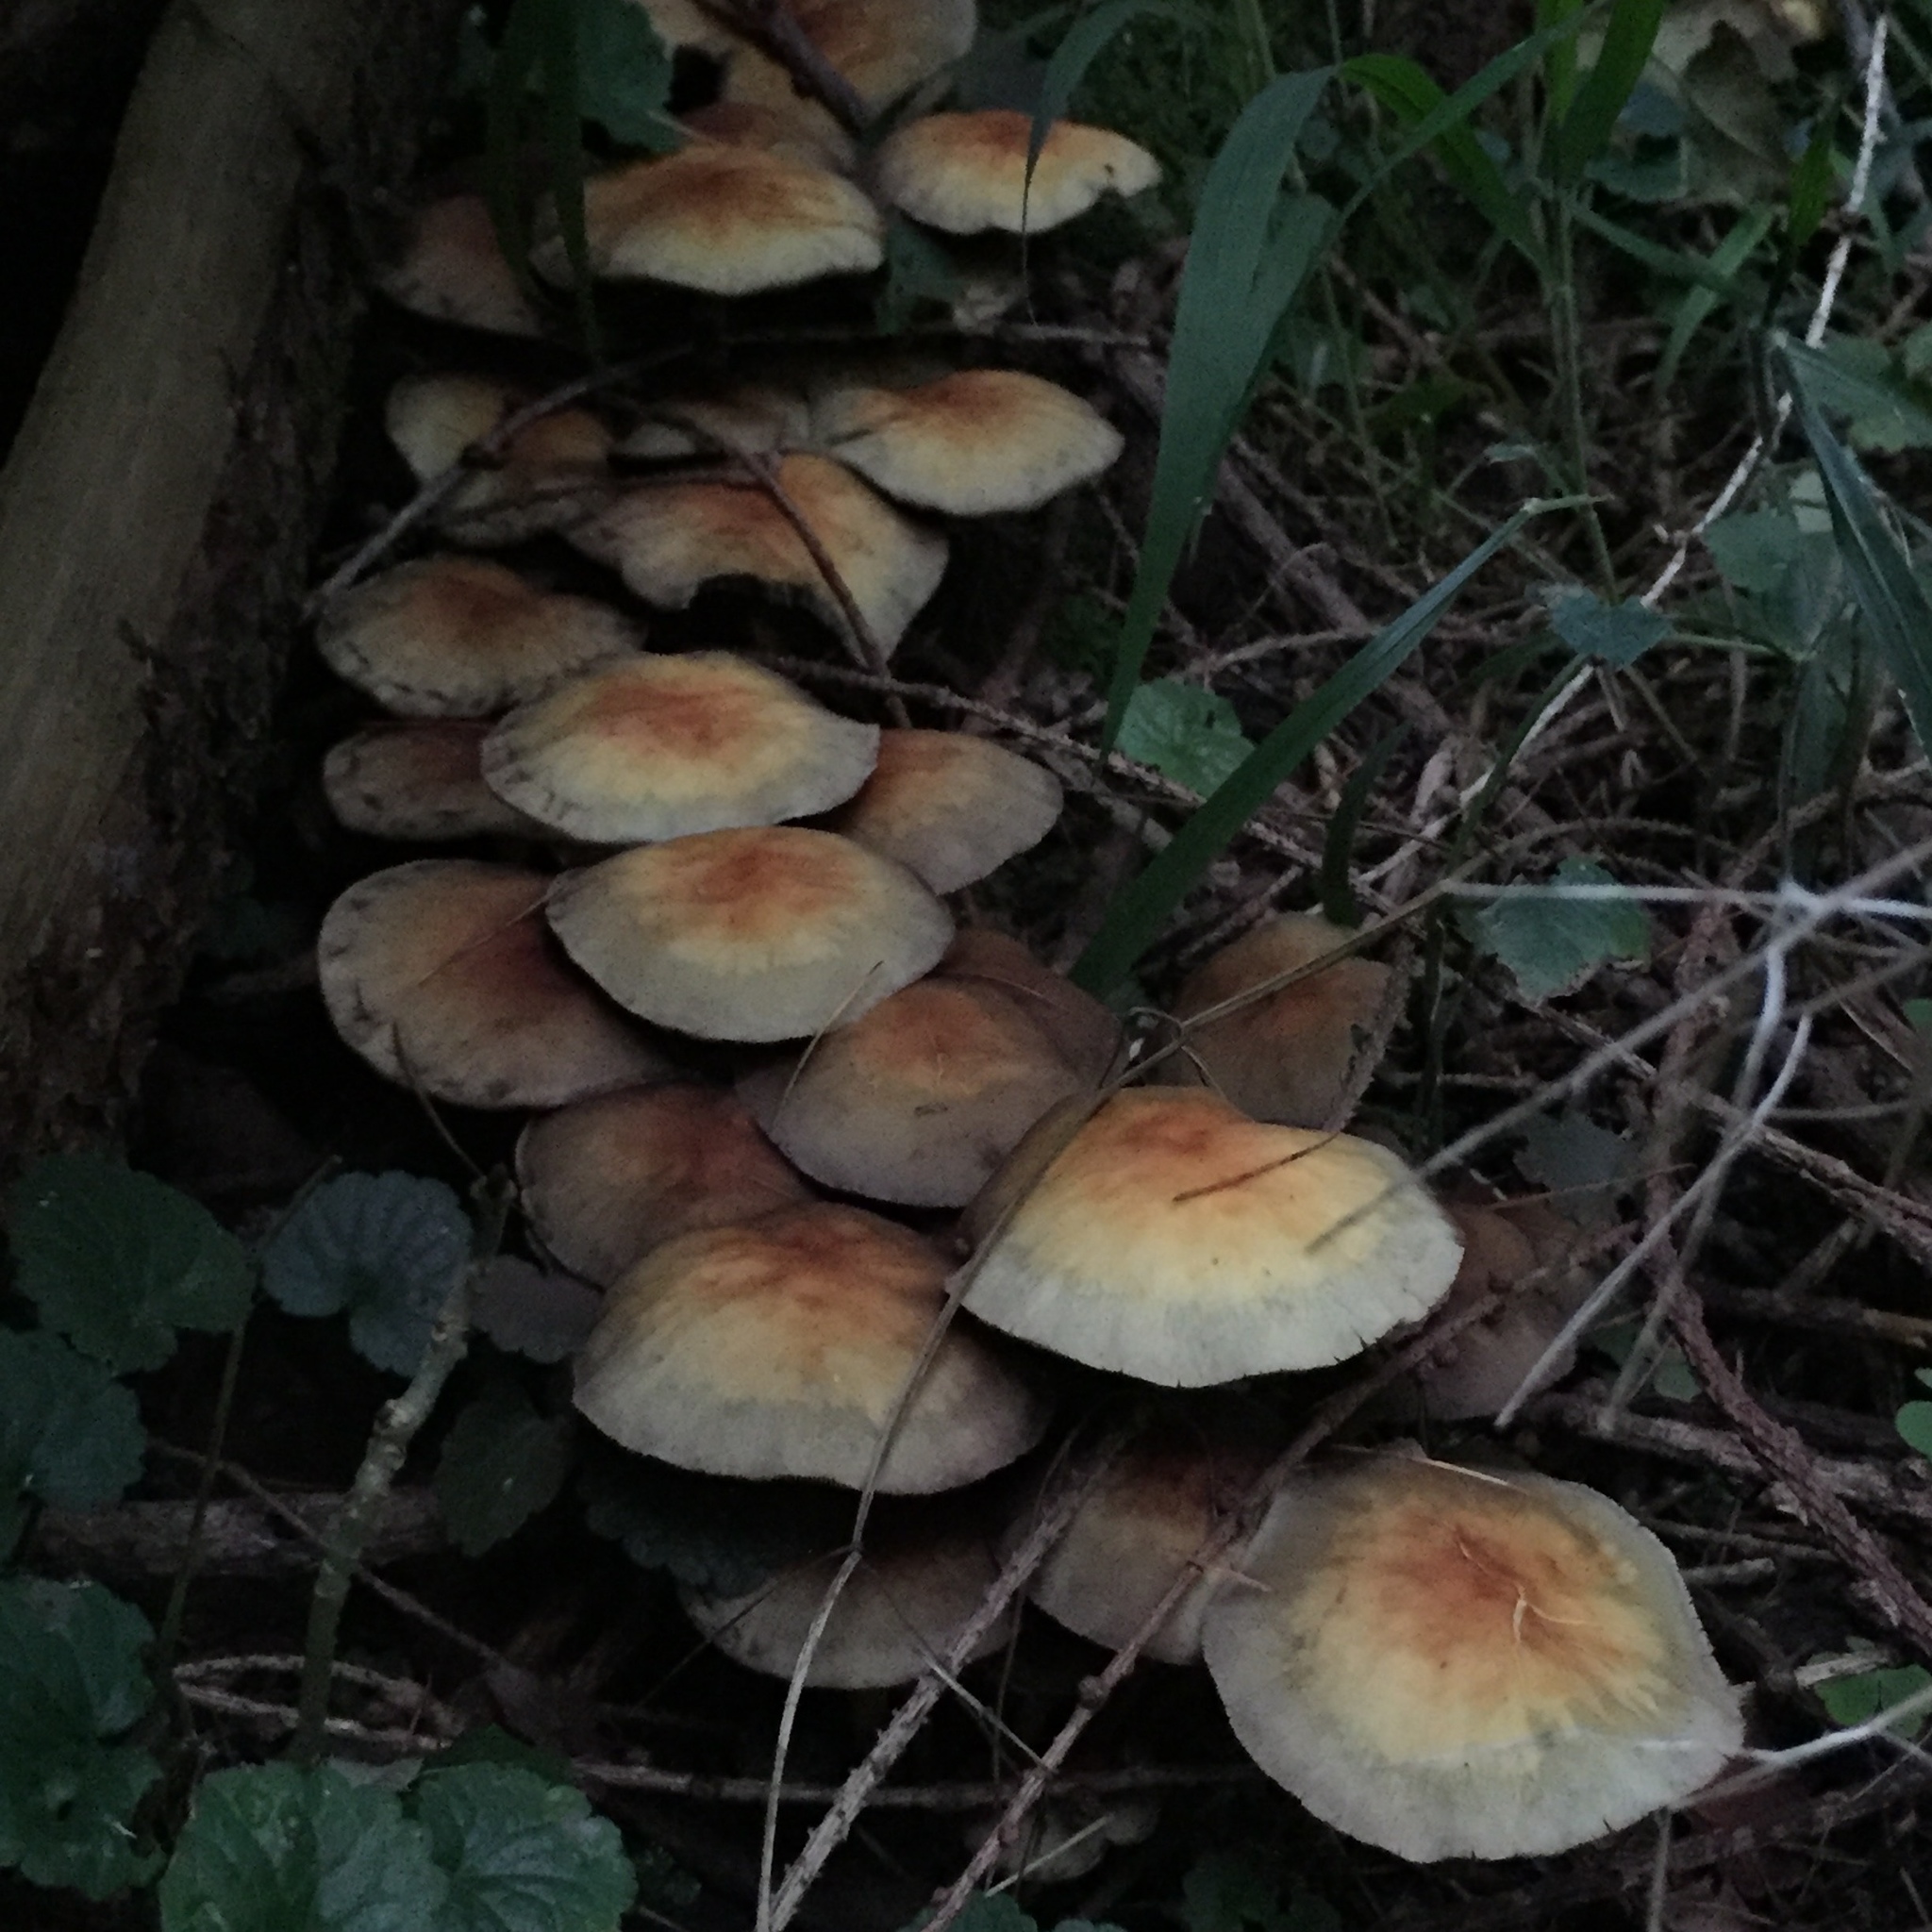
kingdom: Fungi
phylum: Basidiomycota
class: Agaricomycetes
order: Agaricales
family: Strophariaceae
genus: Hypholoma
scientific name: Hypholoma fasciculare
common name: Sulphur tuft
